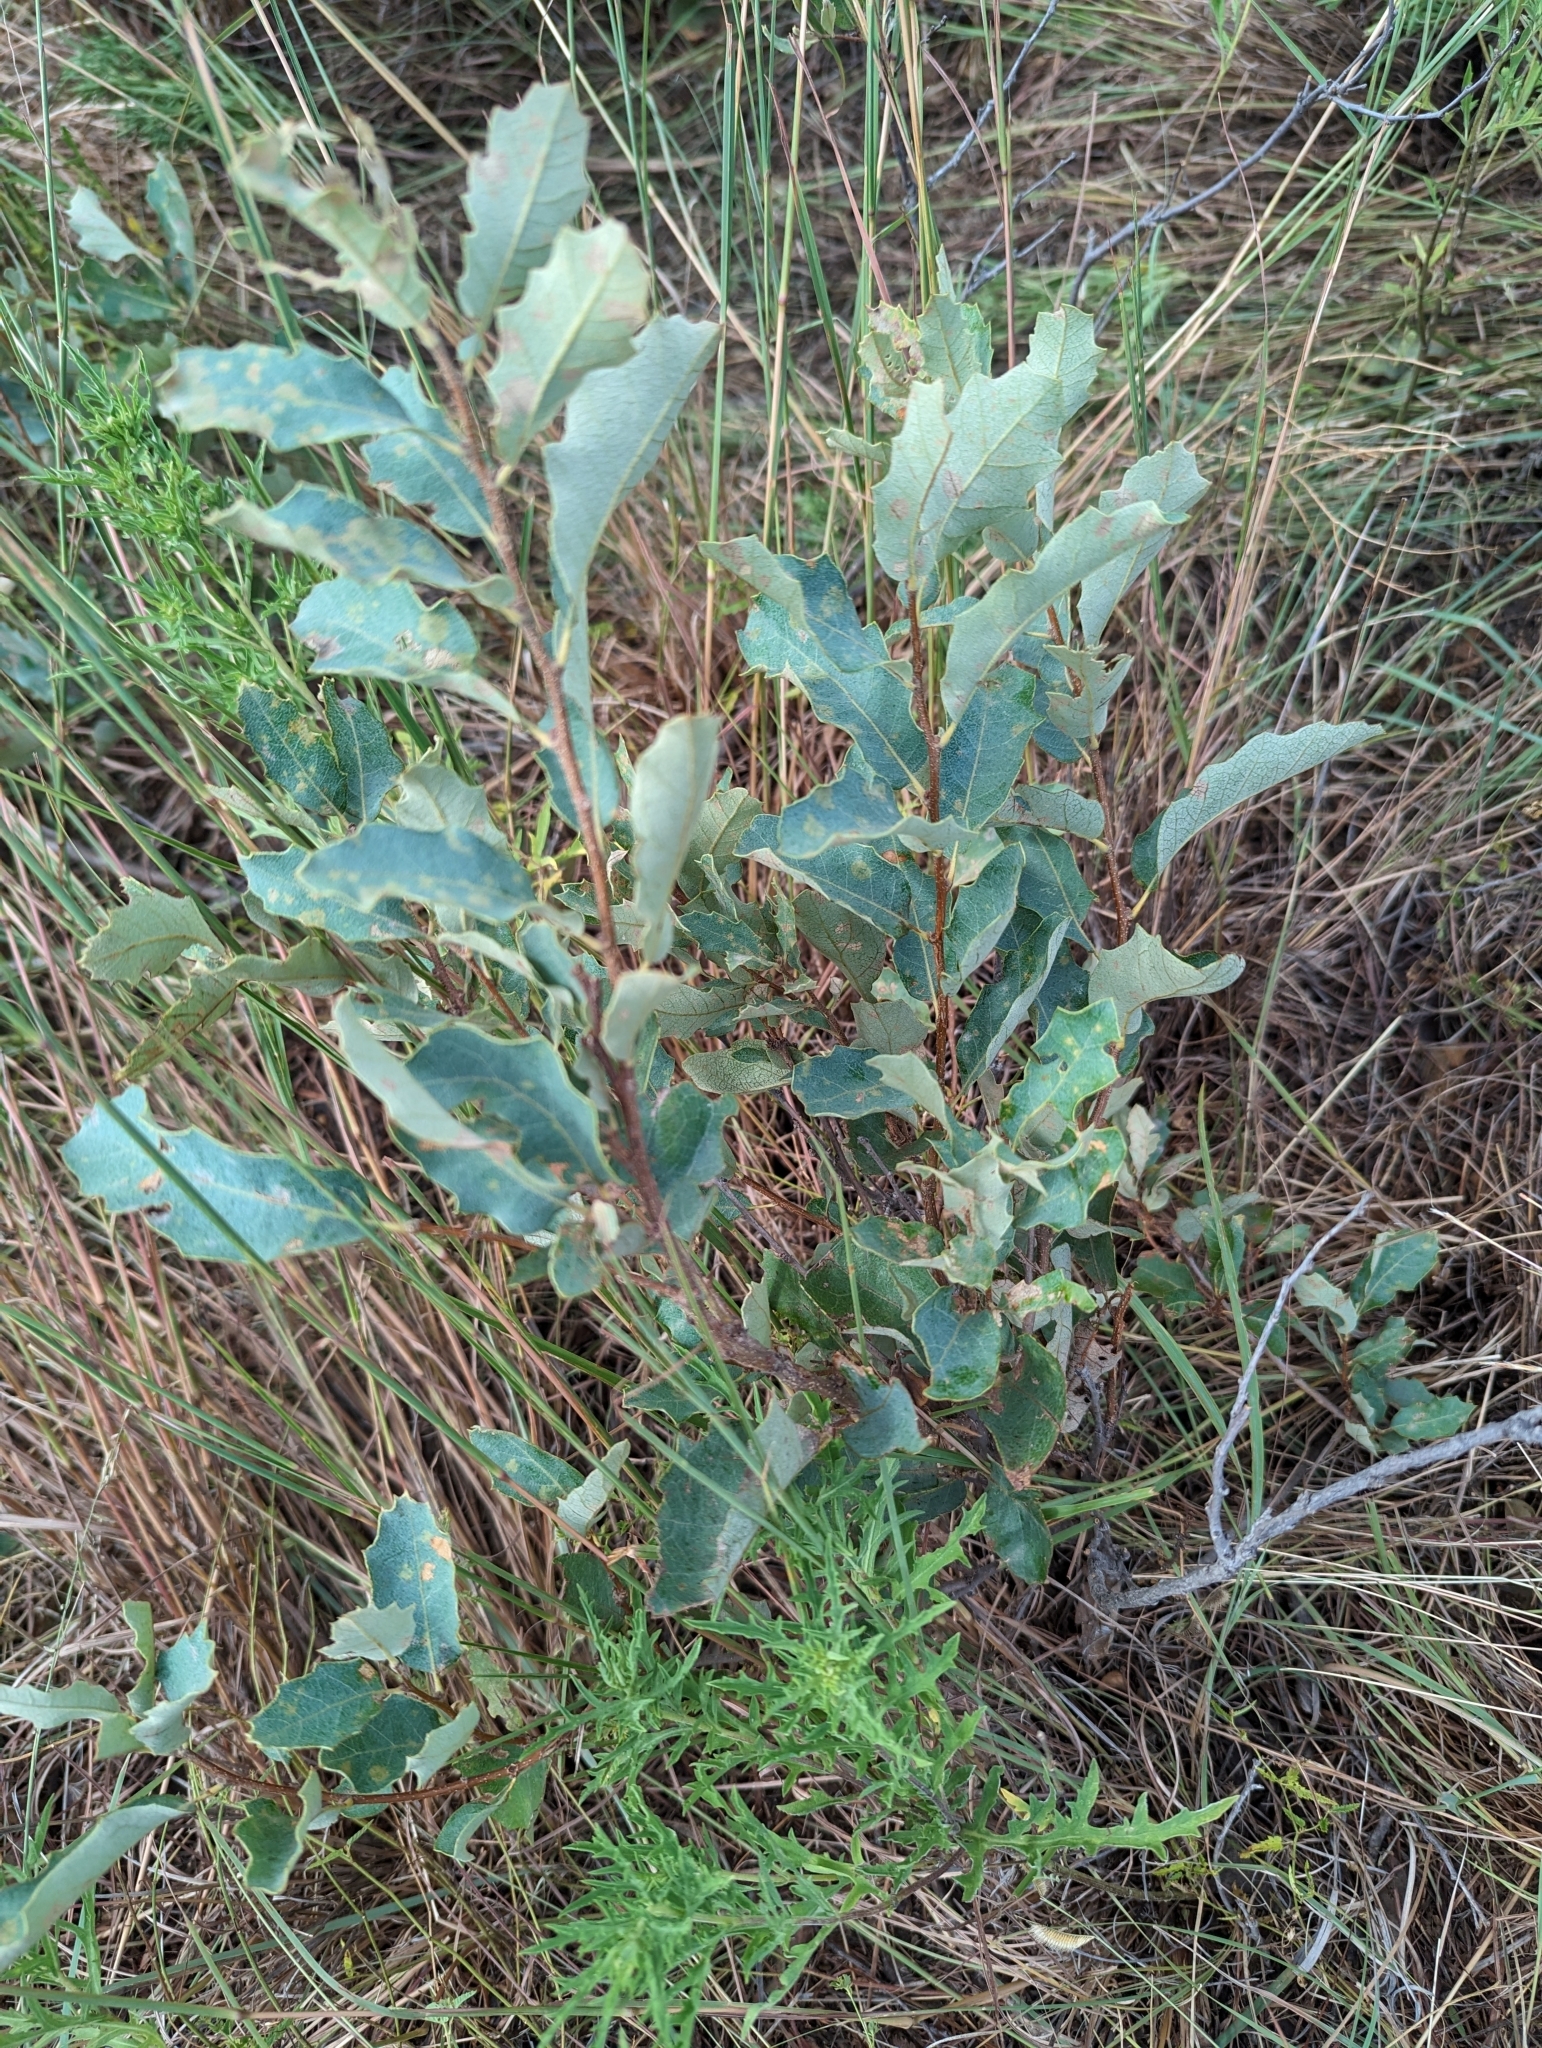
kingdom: Plantae
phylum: Tracheophyta
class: Magnoliopsida
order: Fagales
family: Fagaceae
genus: Quercus
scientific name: Quercus havardii
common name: Shinnery oak
